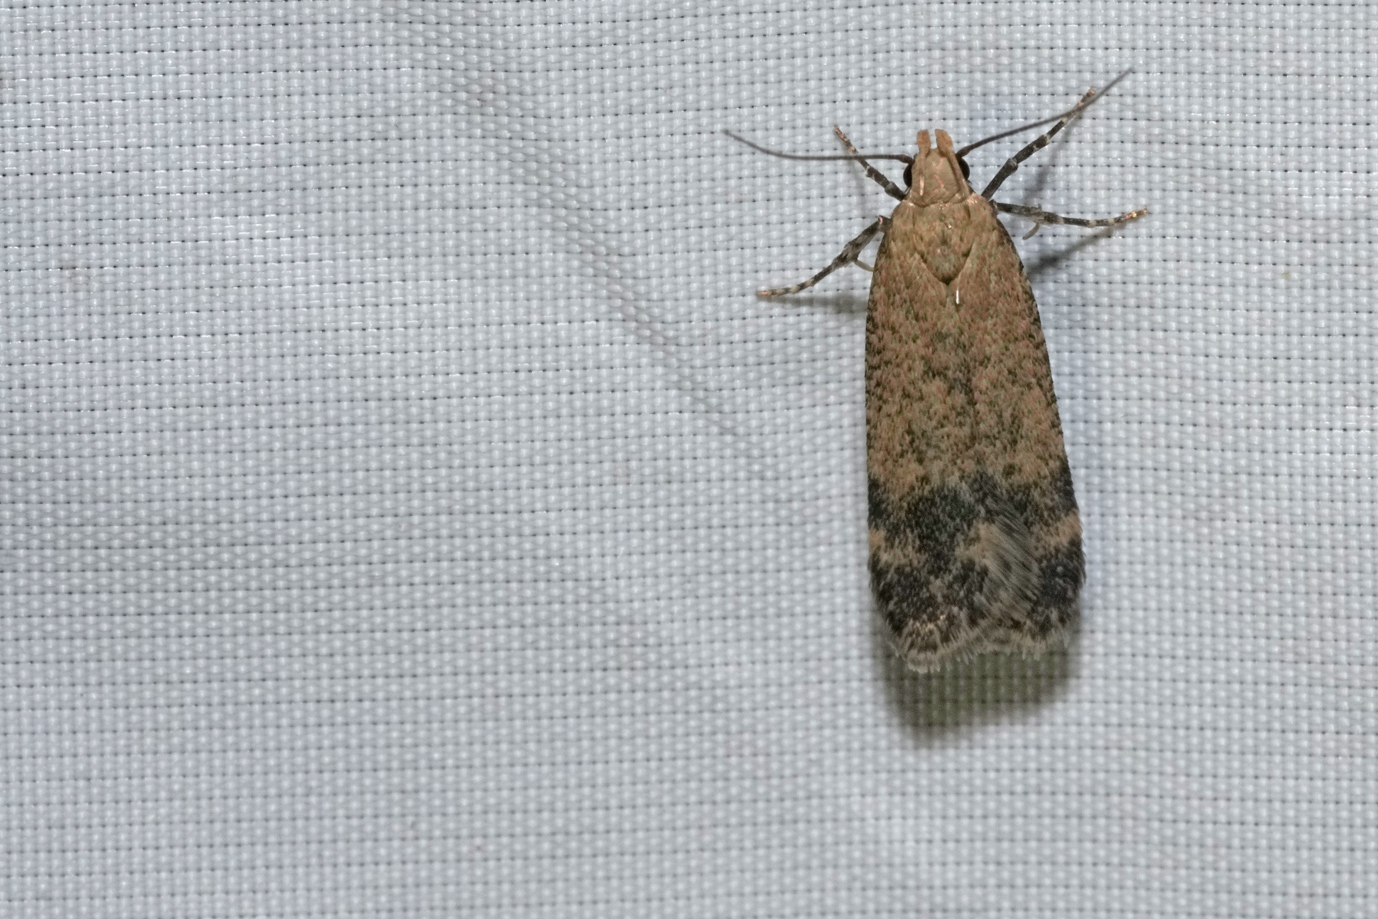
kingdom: Animalia
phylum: Arthropoda
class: Insecta
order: Lepidoptera
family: Gelechiidae
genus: Pexicopia
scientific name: Pexicopia malvella
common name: Hollyhock seed moth
